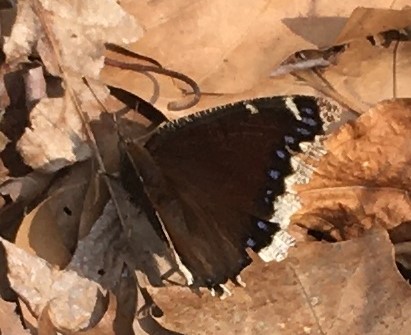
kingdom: Animalia
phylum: Arthropoda
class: Insecta
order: Lepidoptera
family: Nymphalidae
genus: Nymphalis
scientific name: Nymphalis antiopa
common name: Camberwell beauty
